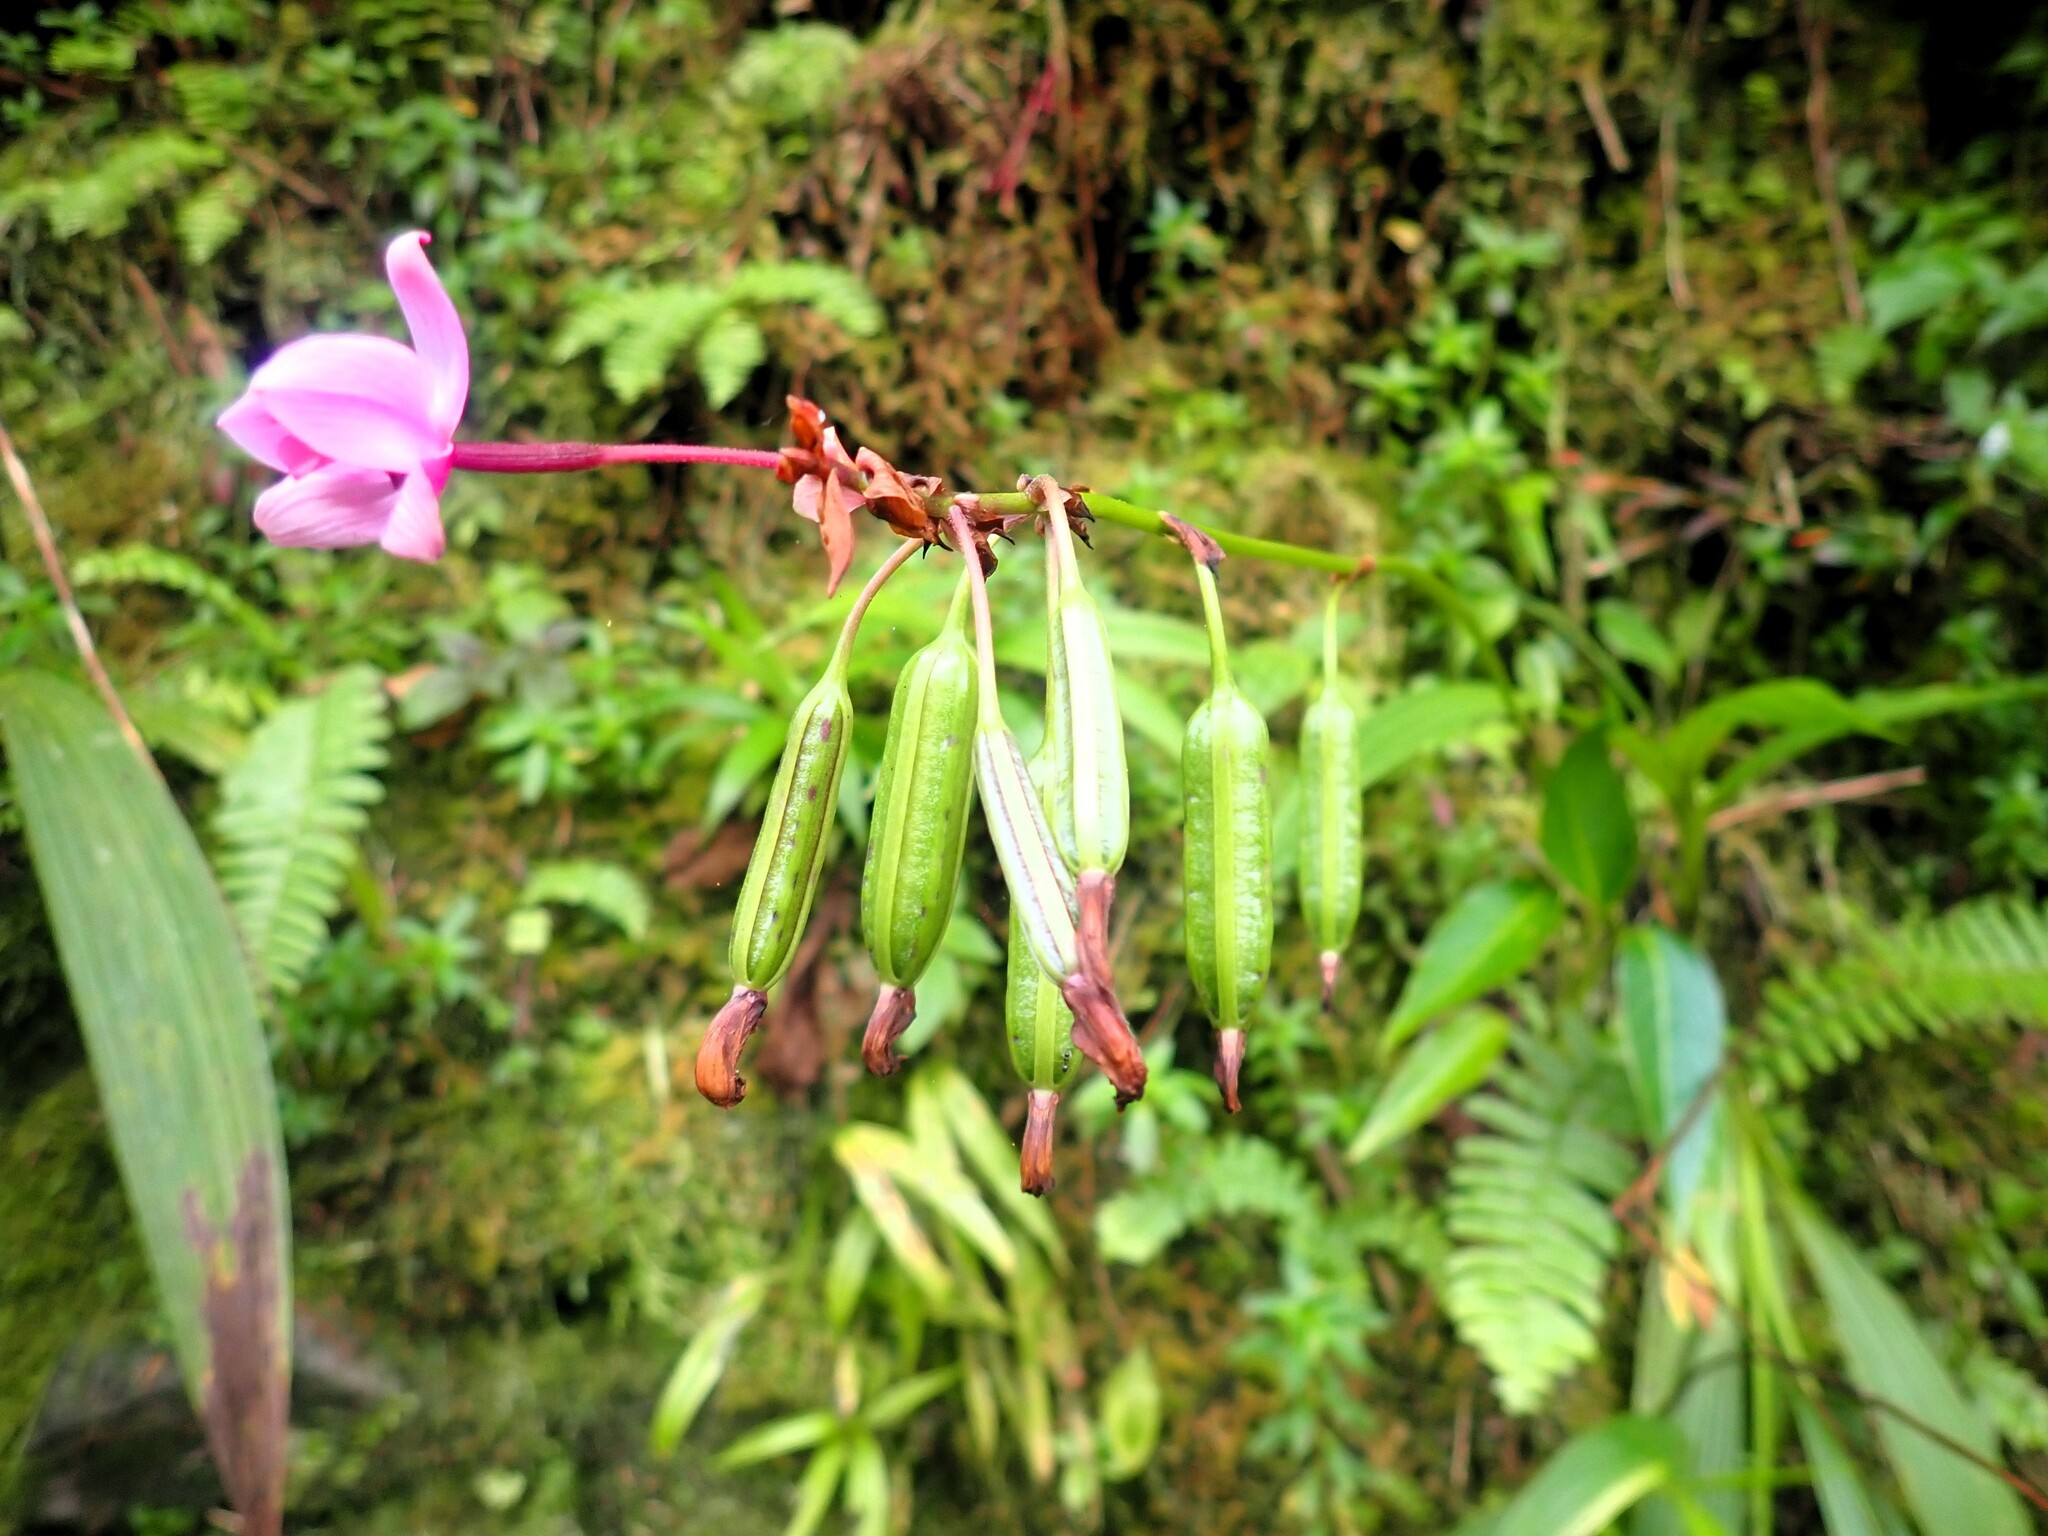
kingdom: Plantae
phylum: Tracheophyta
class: Liliopsida
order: Asparagales
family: Orchidaceae
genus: Spathoglottis
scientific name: Spathoglottis plicata
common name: Philippine ground orchid
